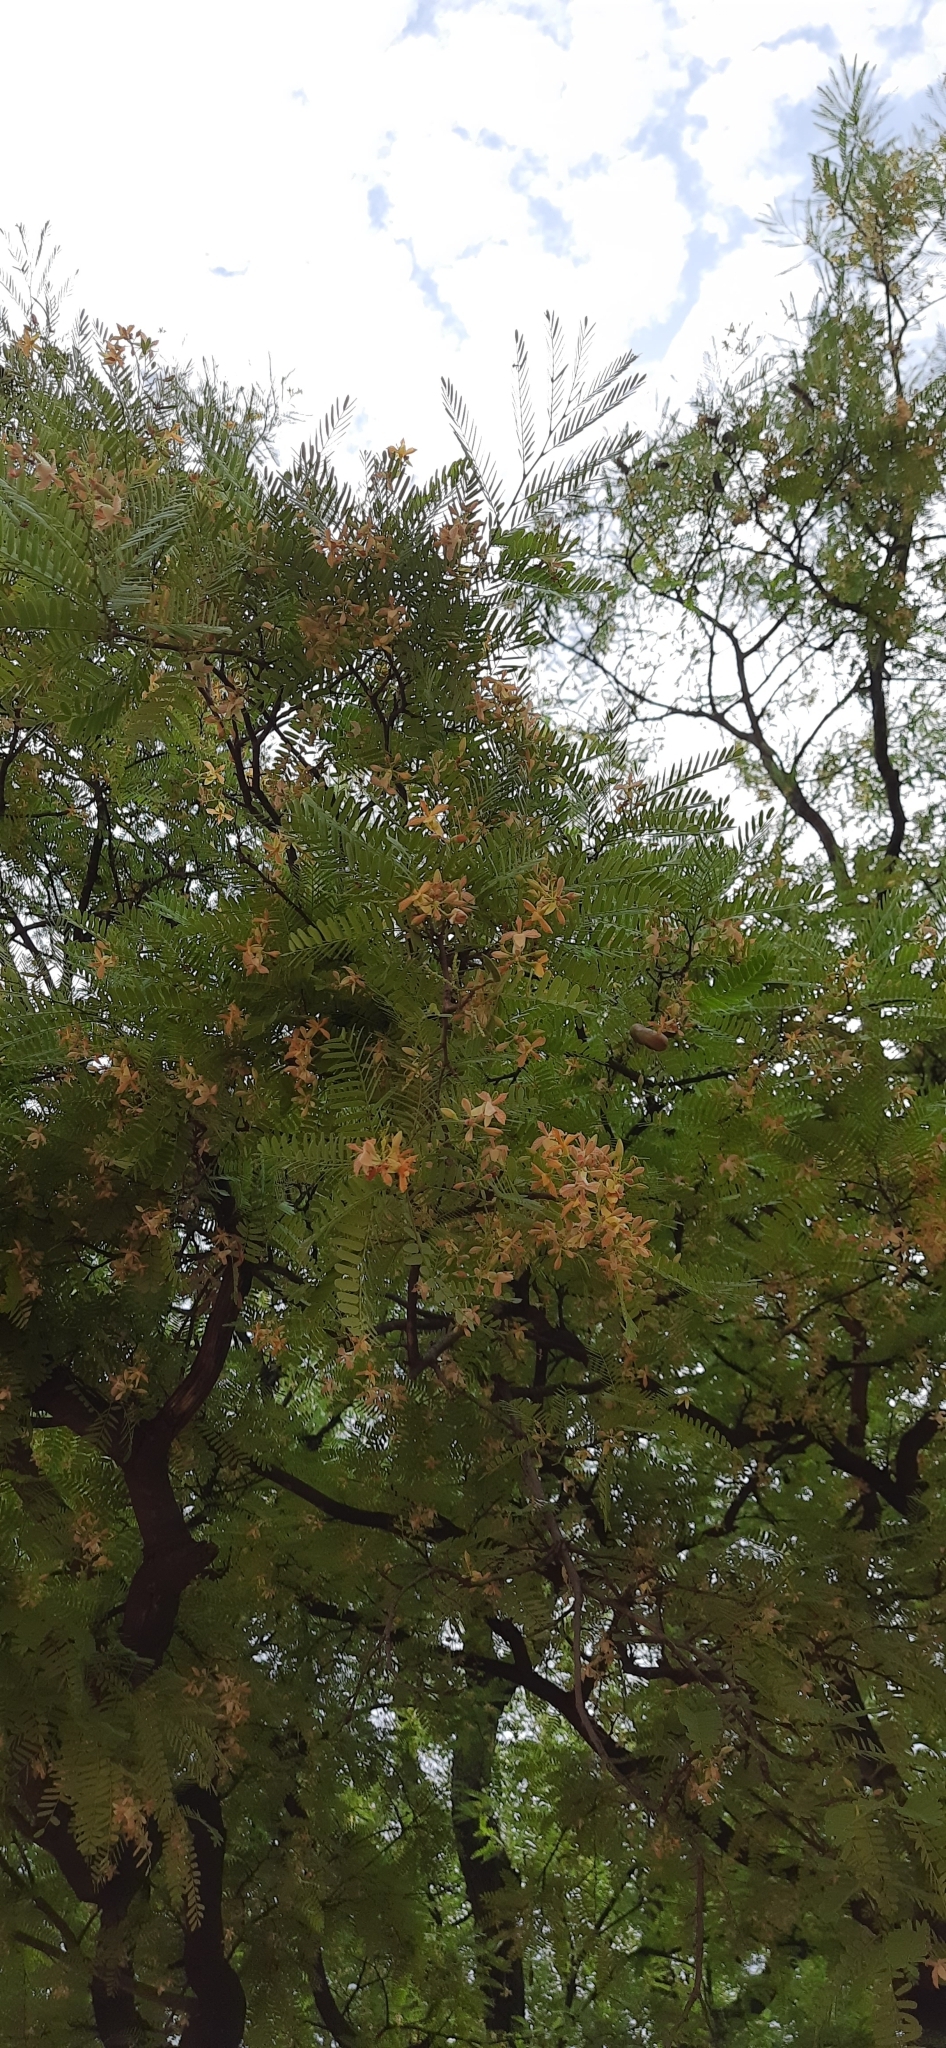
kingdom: Plantae
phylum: Tracheophyta
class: Magnoliopsida
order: Fabales
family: Fabaceae
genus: Tamarindus
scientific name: Tamarindus indica
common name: Tamarind
